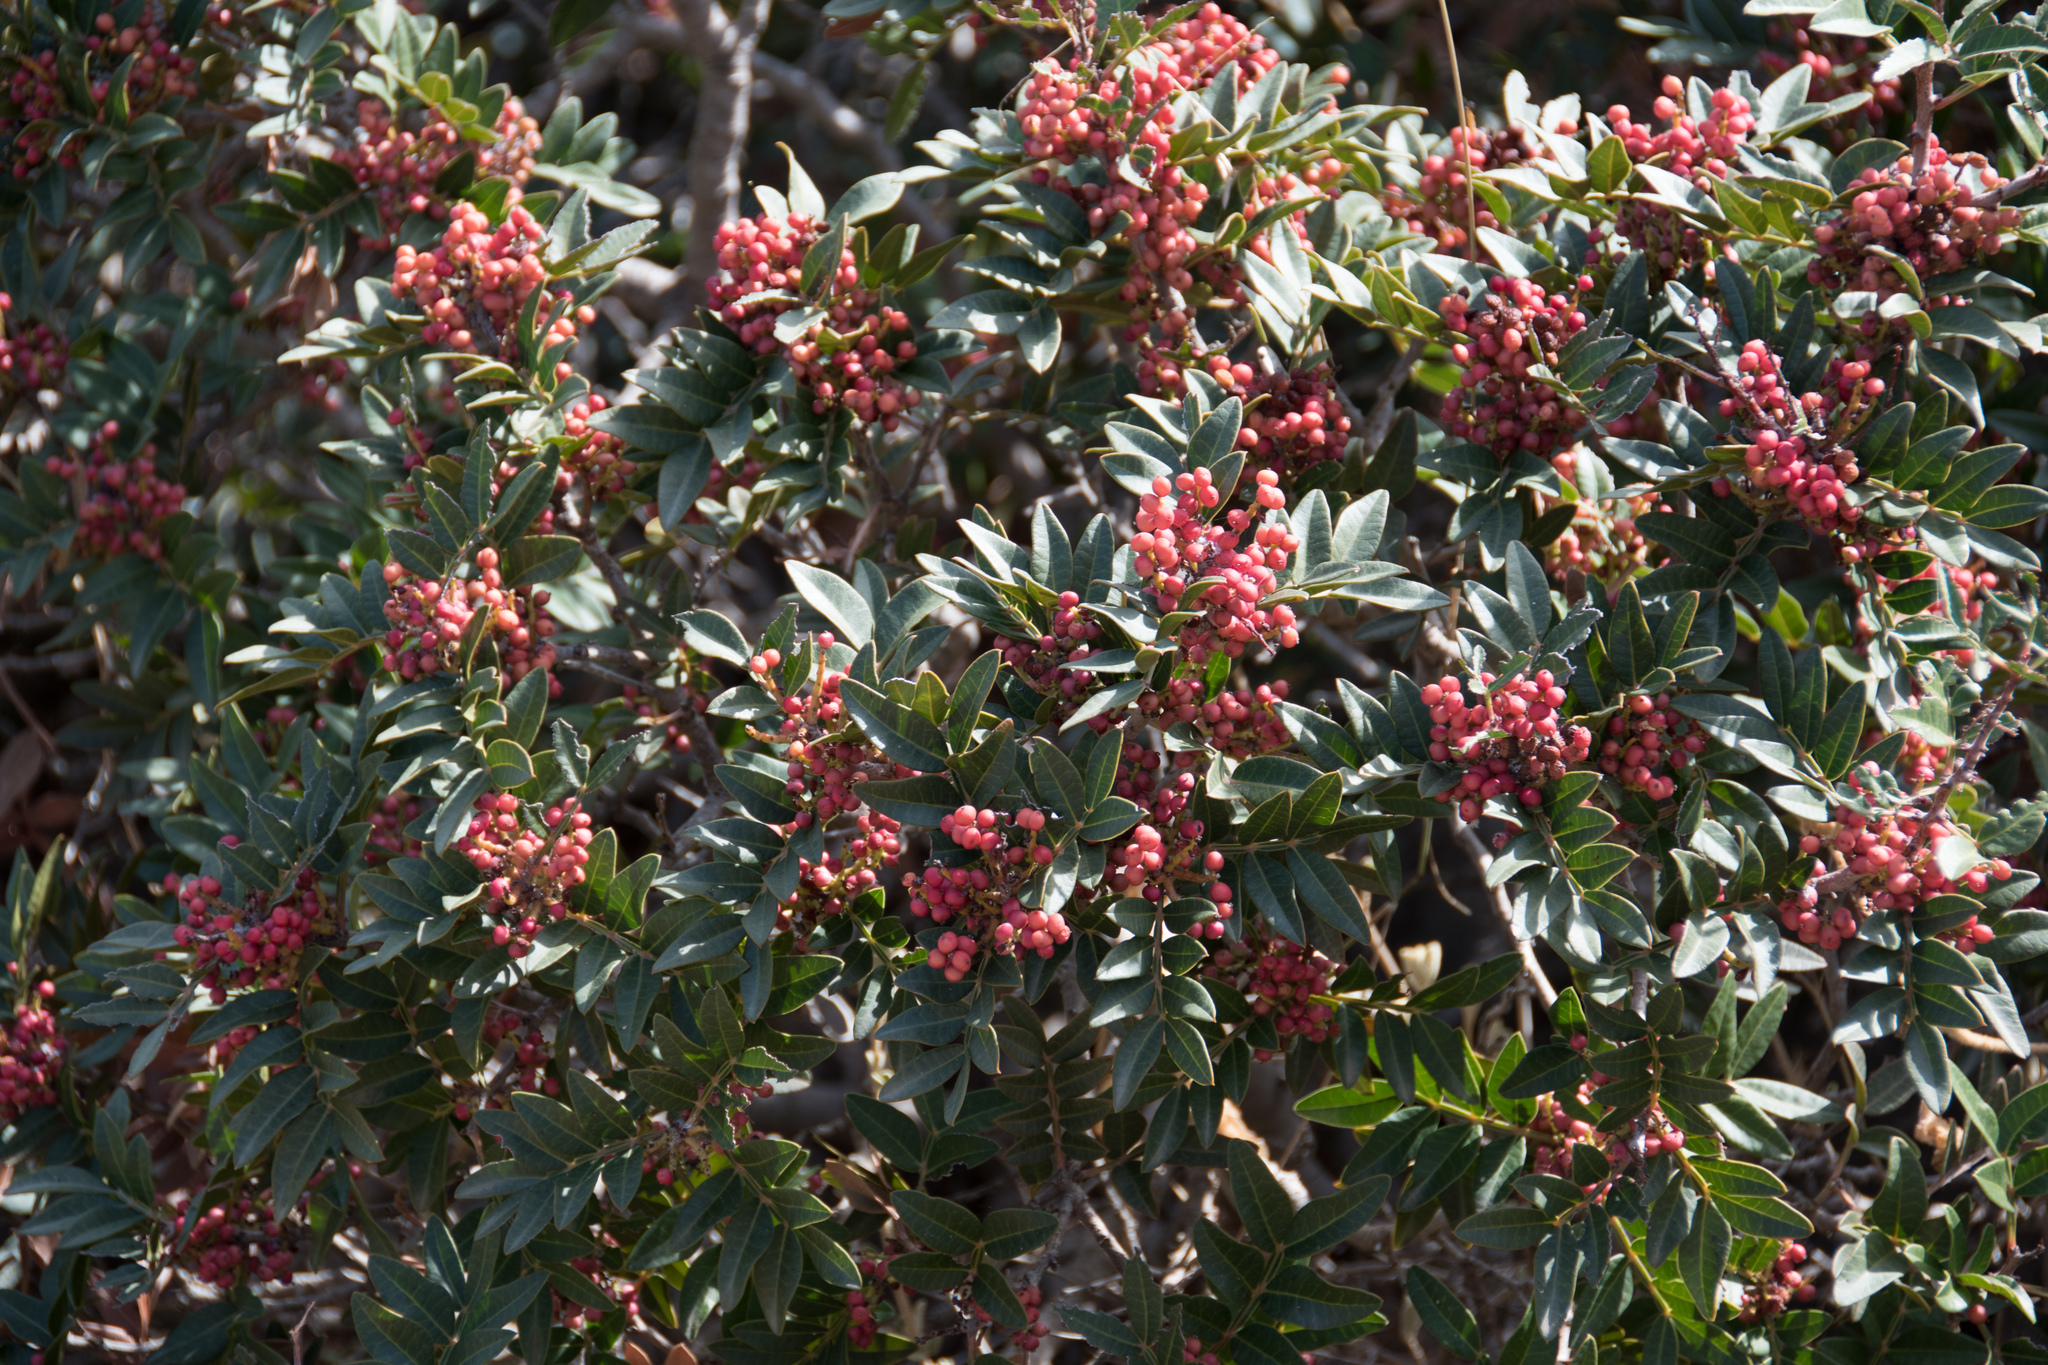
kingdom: Plantae
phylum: Tracheophyta
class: Magnoliopsida
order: Sapindales
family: Anacardiaceae
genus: Pistacia
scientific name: Pistacia lentiscus
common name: Lentisk
